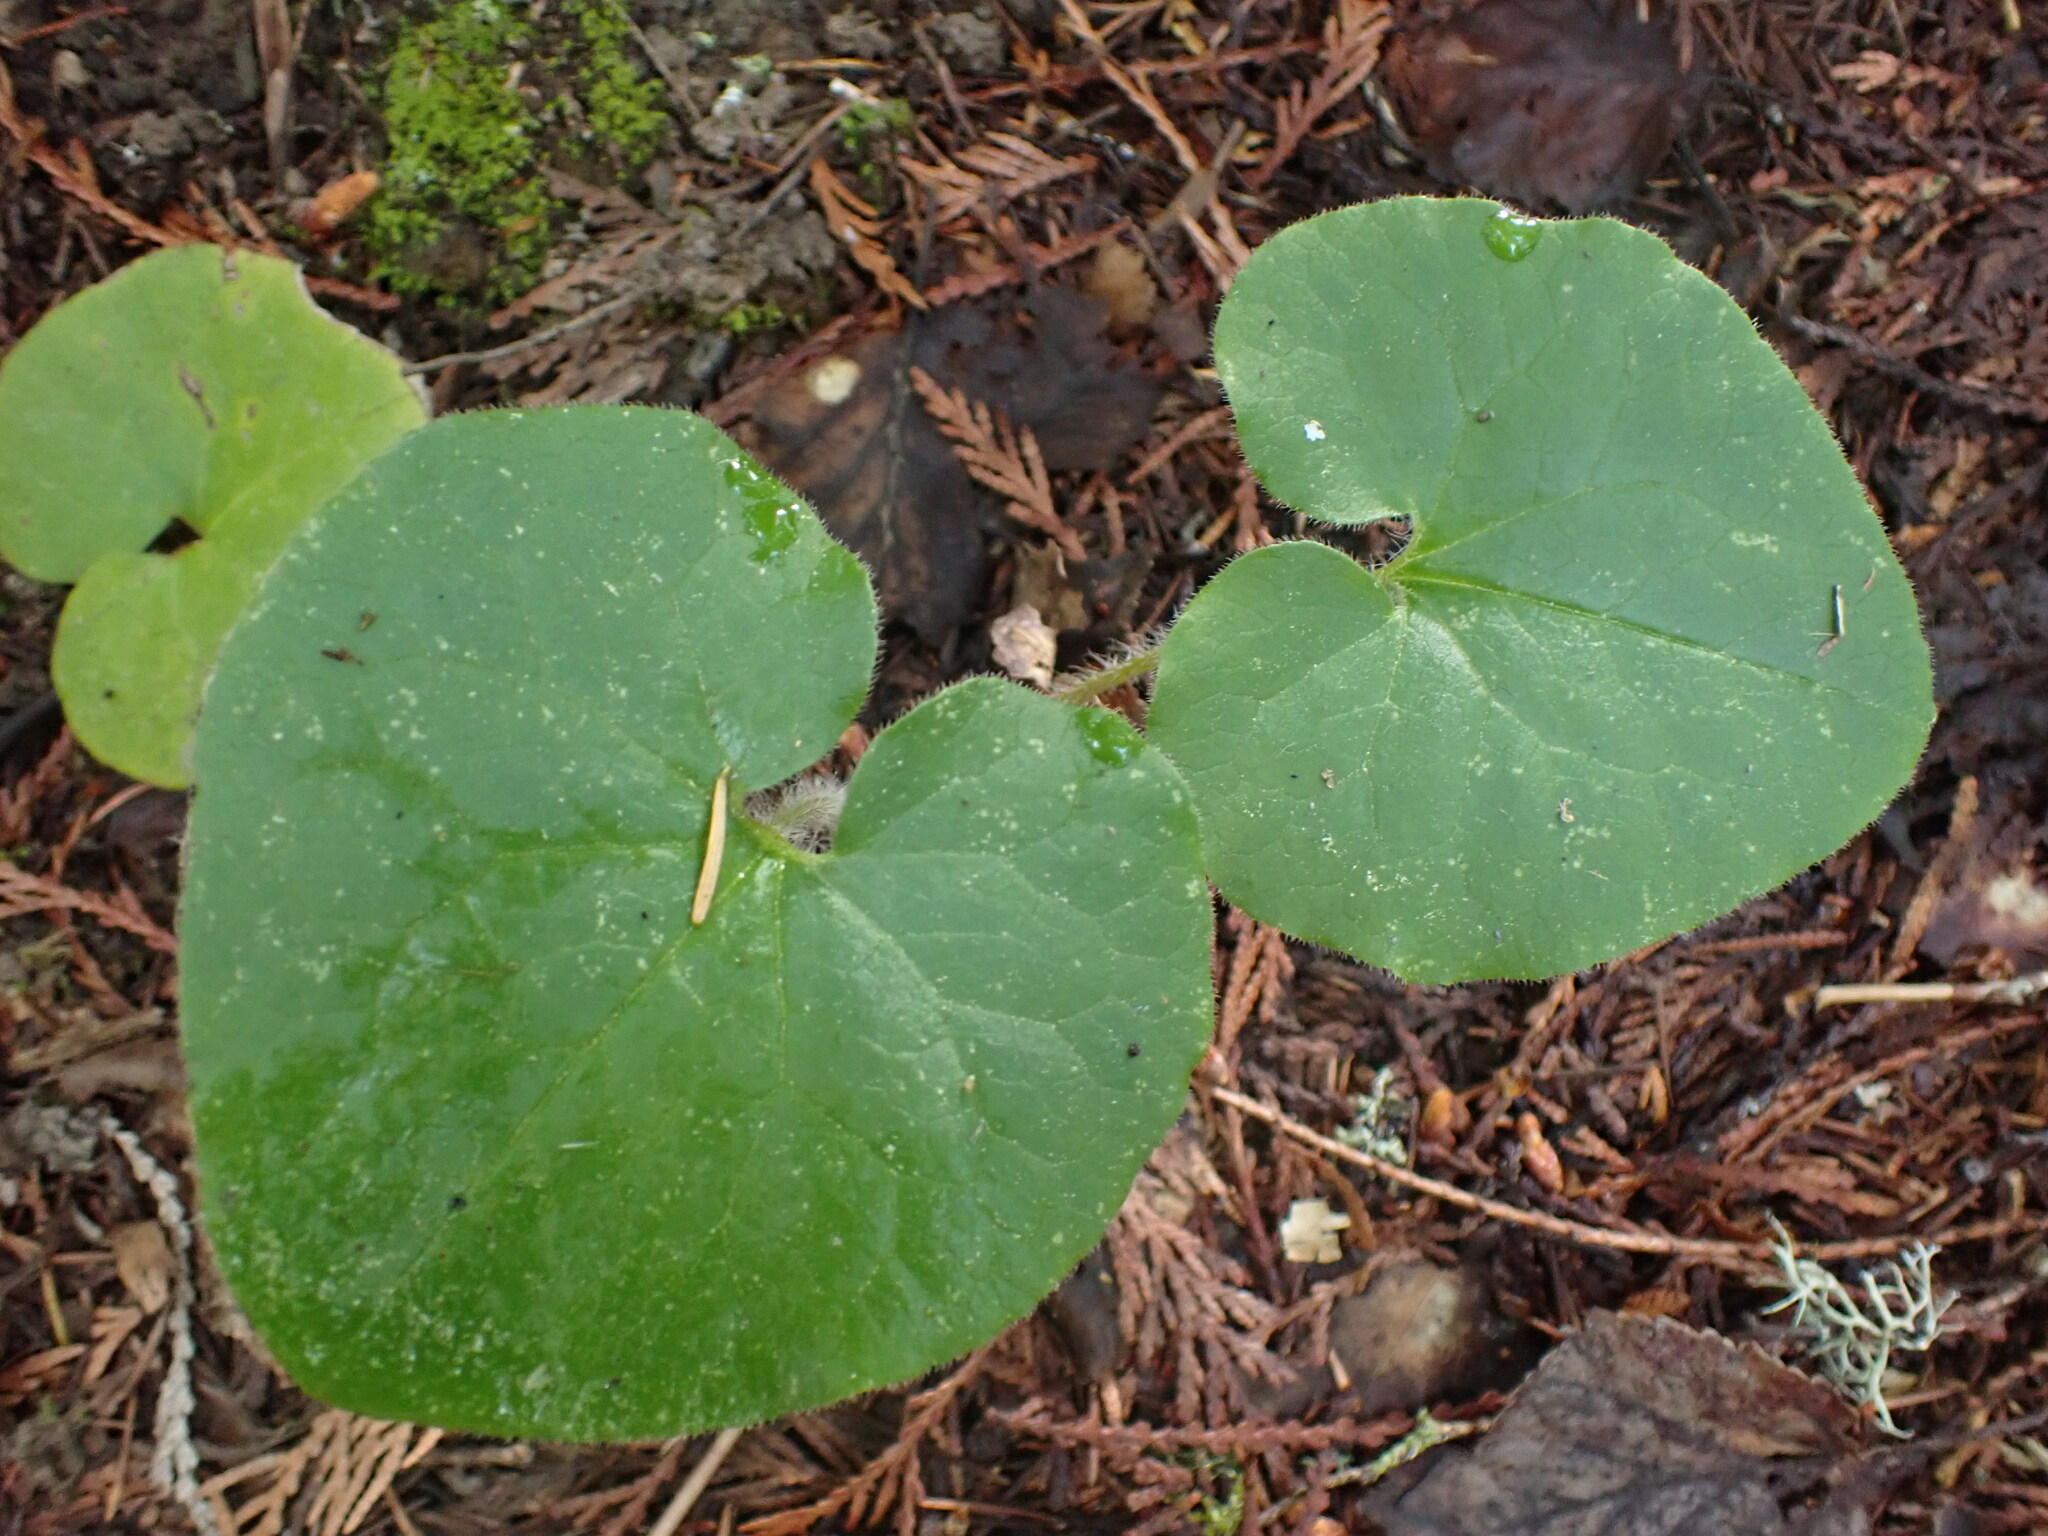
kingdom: Plantae
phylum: Tracheophyta
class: Magnoliopsida
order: Piperales
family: Aristolochiaceae
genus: Asarum
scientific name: Asarum caudatum
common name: Wild ginger
